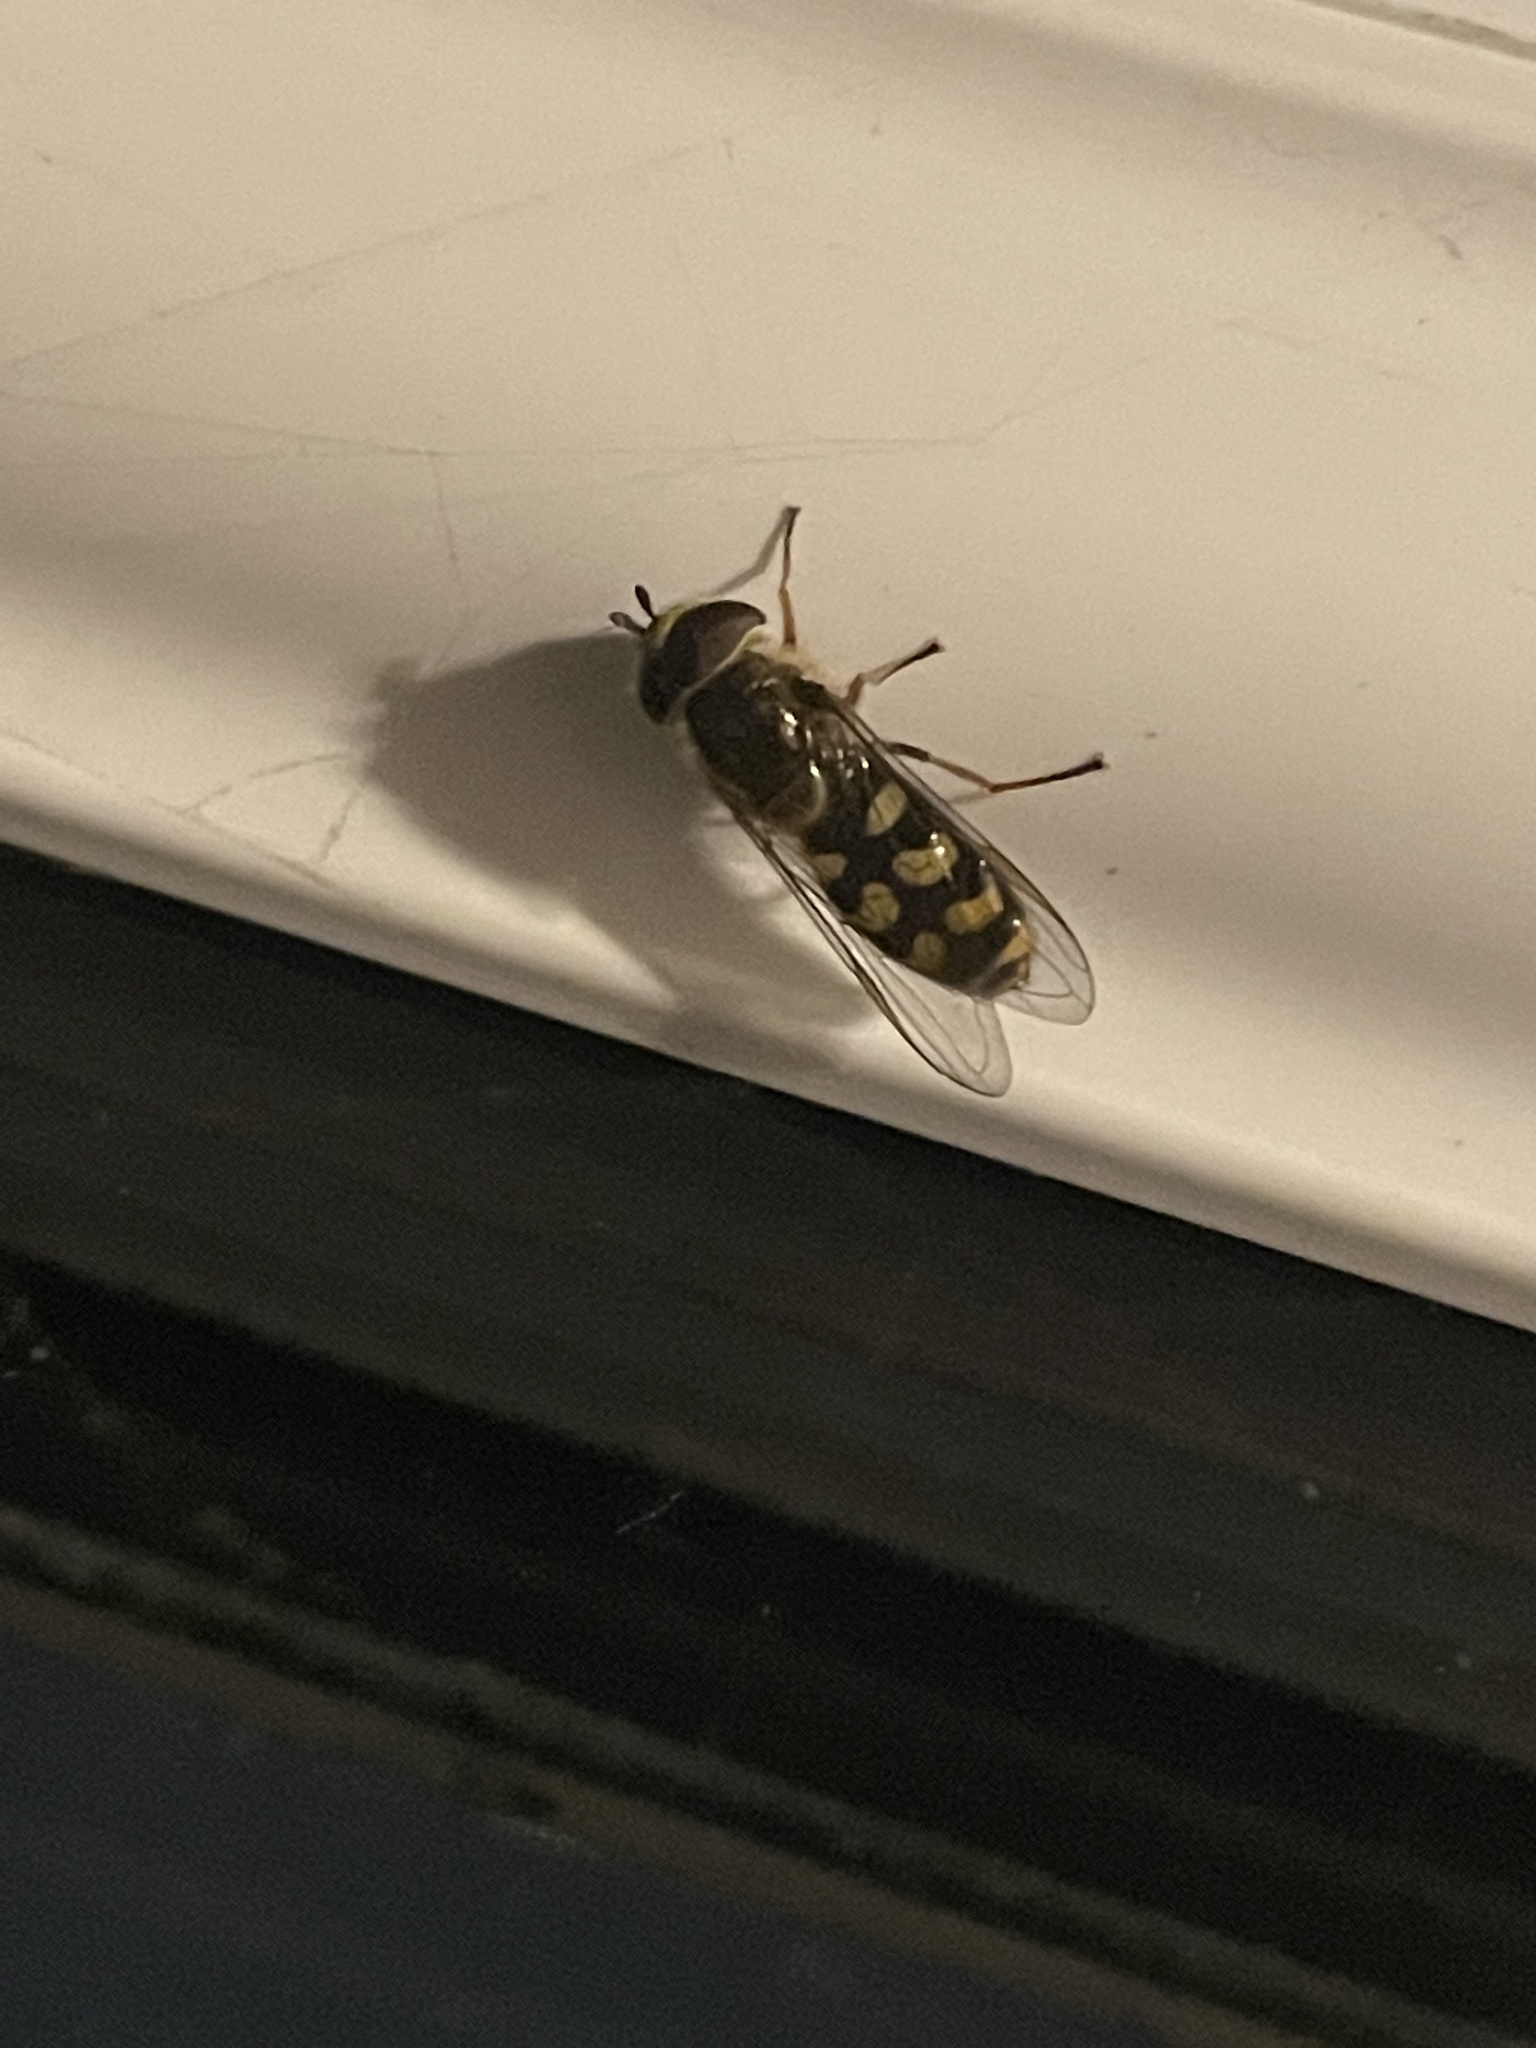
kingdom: Animalia
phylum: Arthropoda
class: Insecta
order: Diptera
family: Syrphidae
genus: Eupeodes
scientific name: Eupeodes
